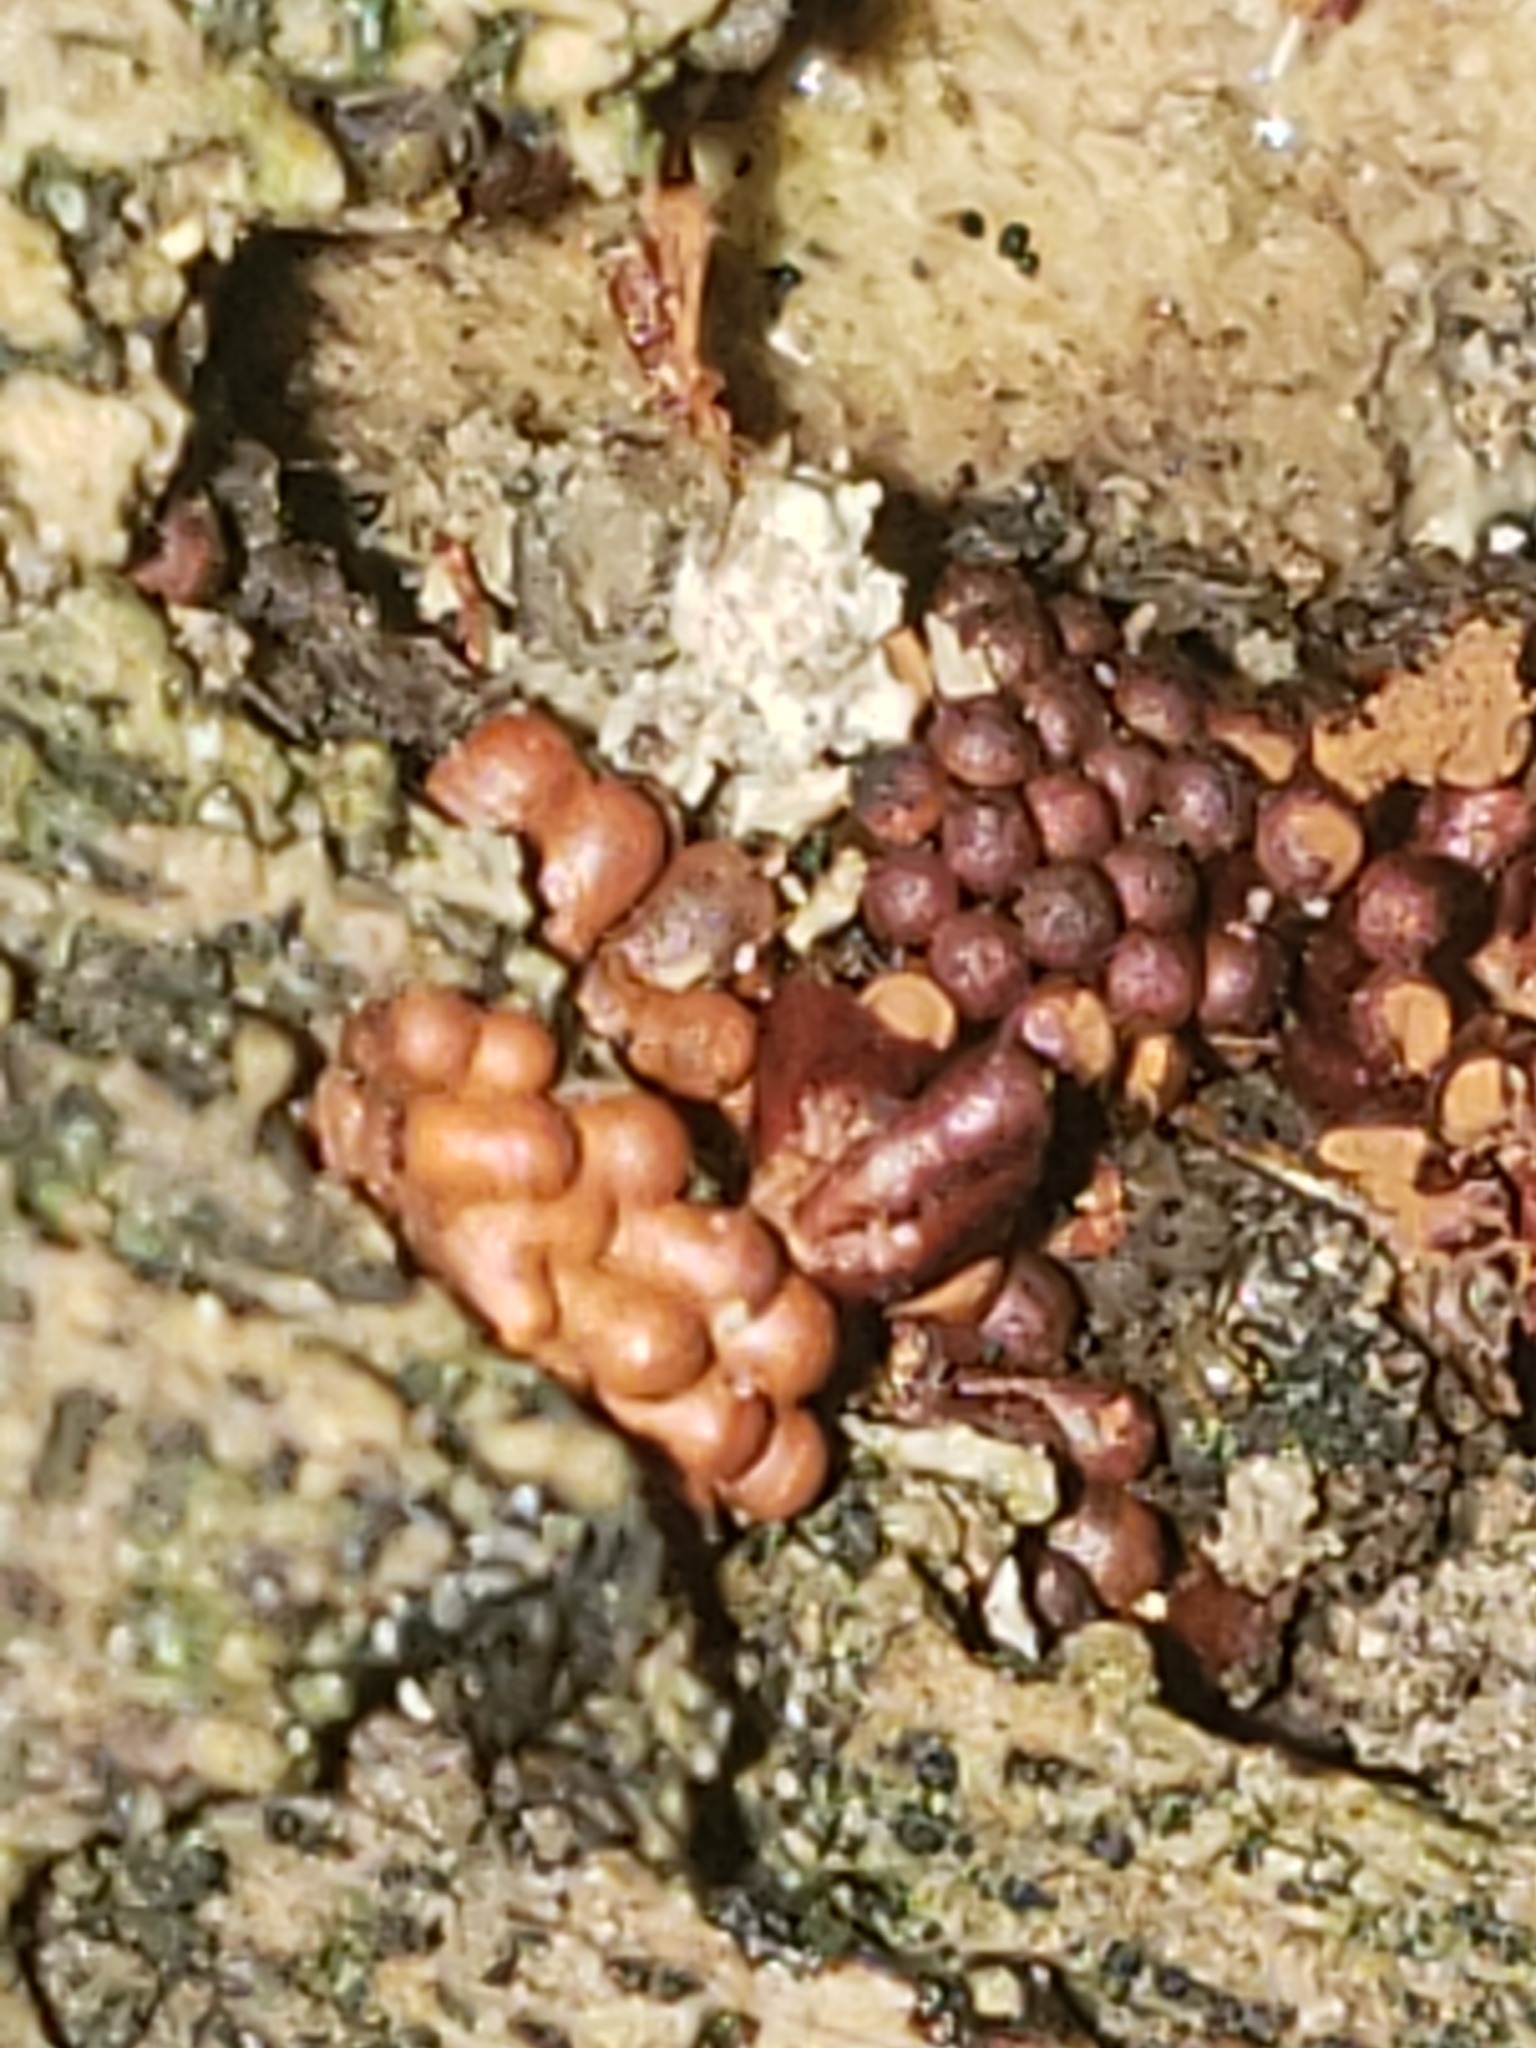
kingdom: Protozoa
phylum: Mycetozoa
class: Myxomycetes
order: Trichiales
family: Trichiaceae
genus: Metatrichia
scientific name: Metatrichia vesparia
